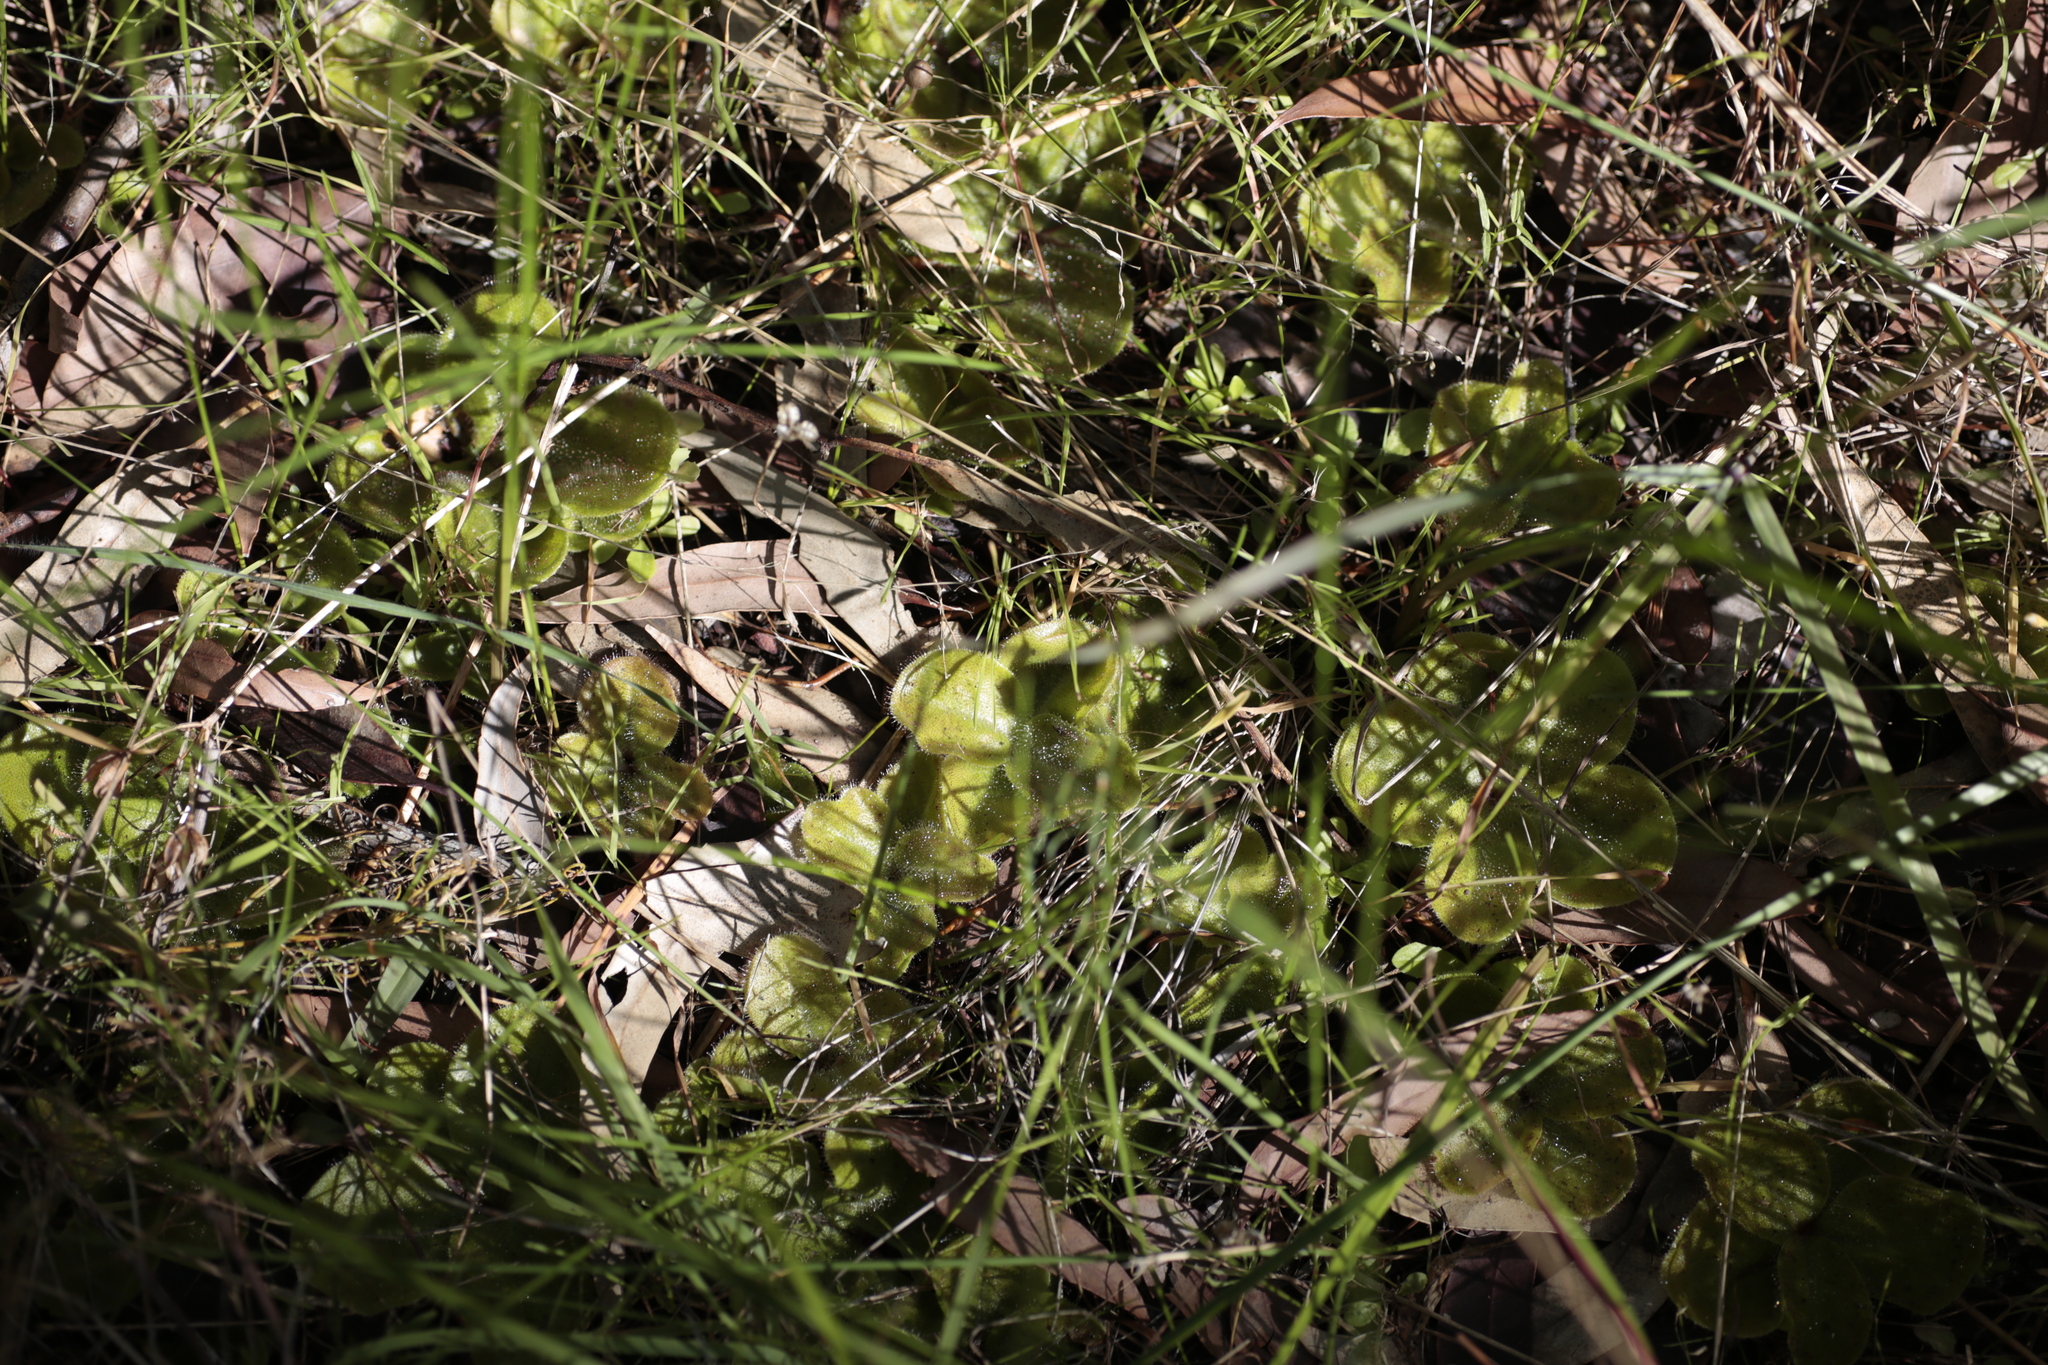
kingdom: Plantae
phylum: Tracheophyta
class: Magnoliopsida
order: Caryophyllales
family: Droseraceae
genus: Drosera
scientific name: Drosera erythrorhiza
